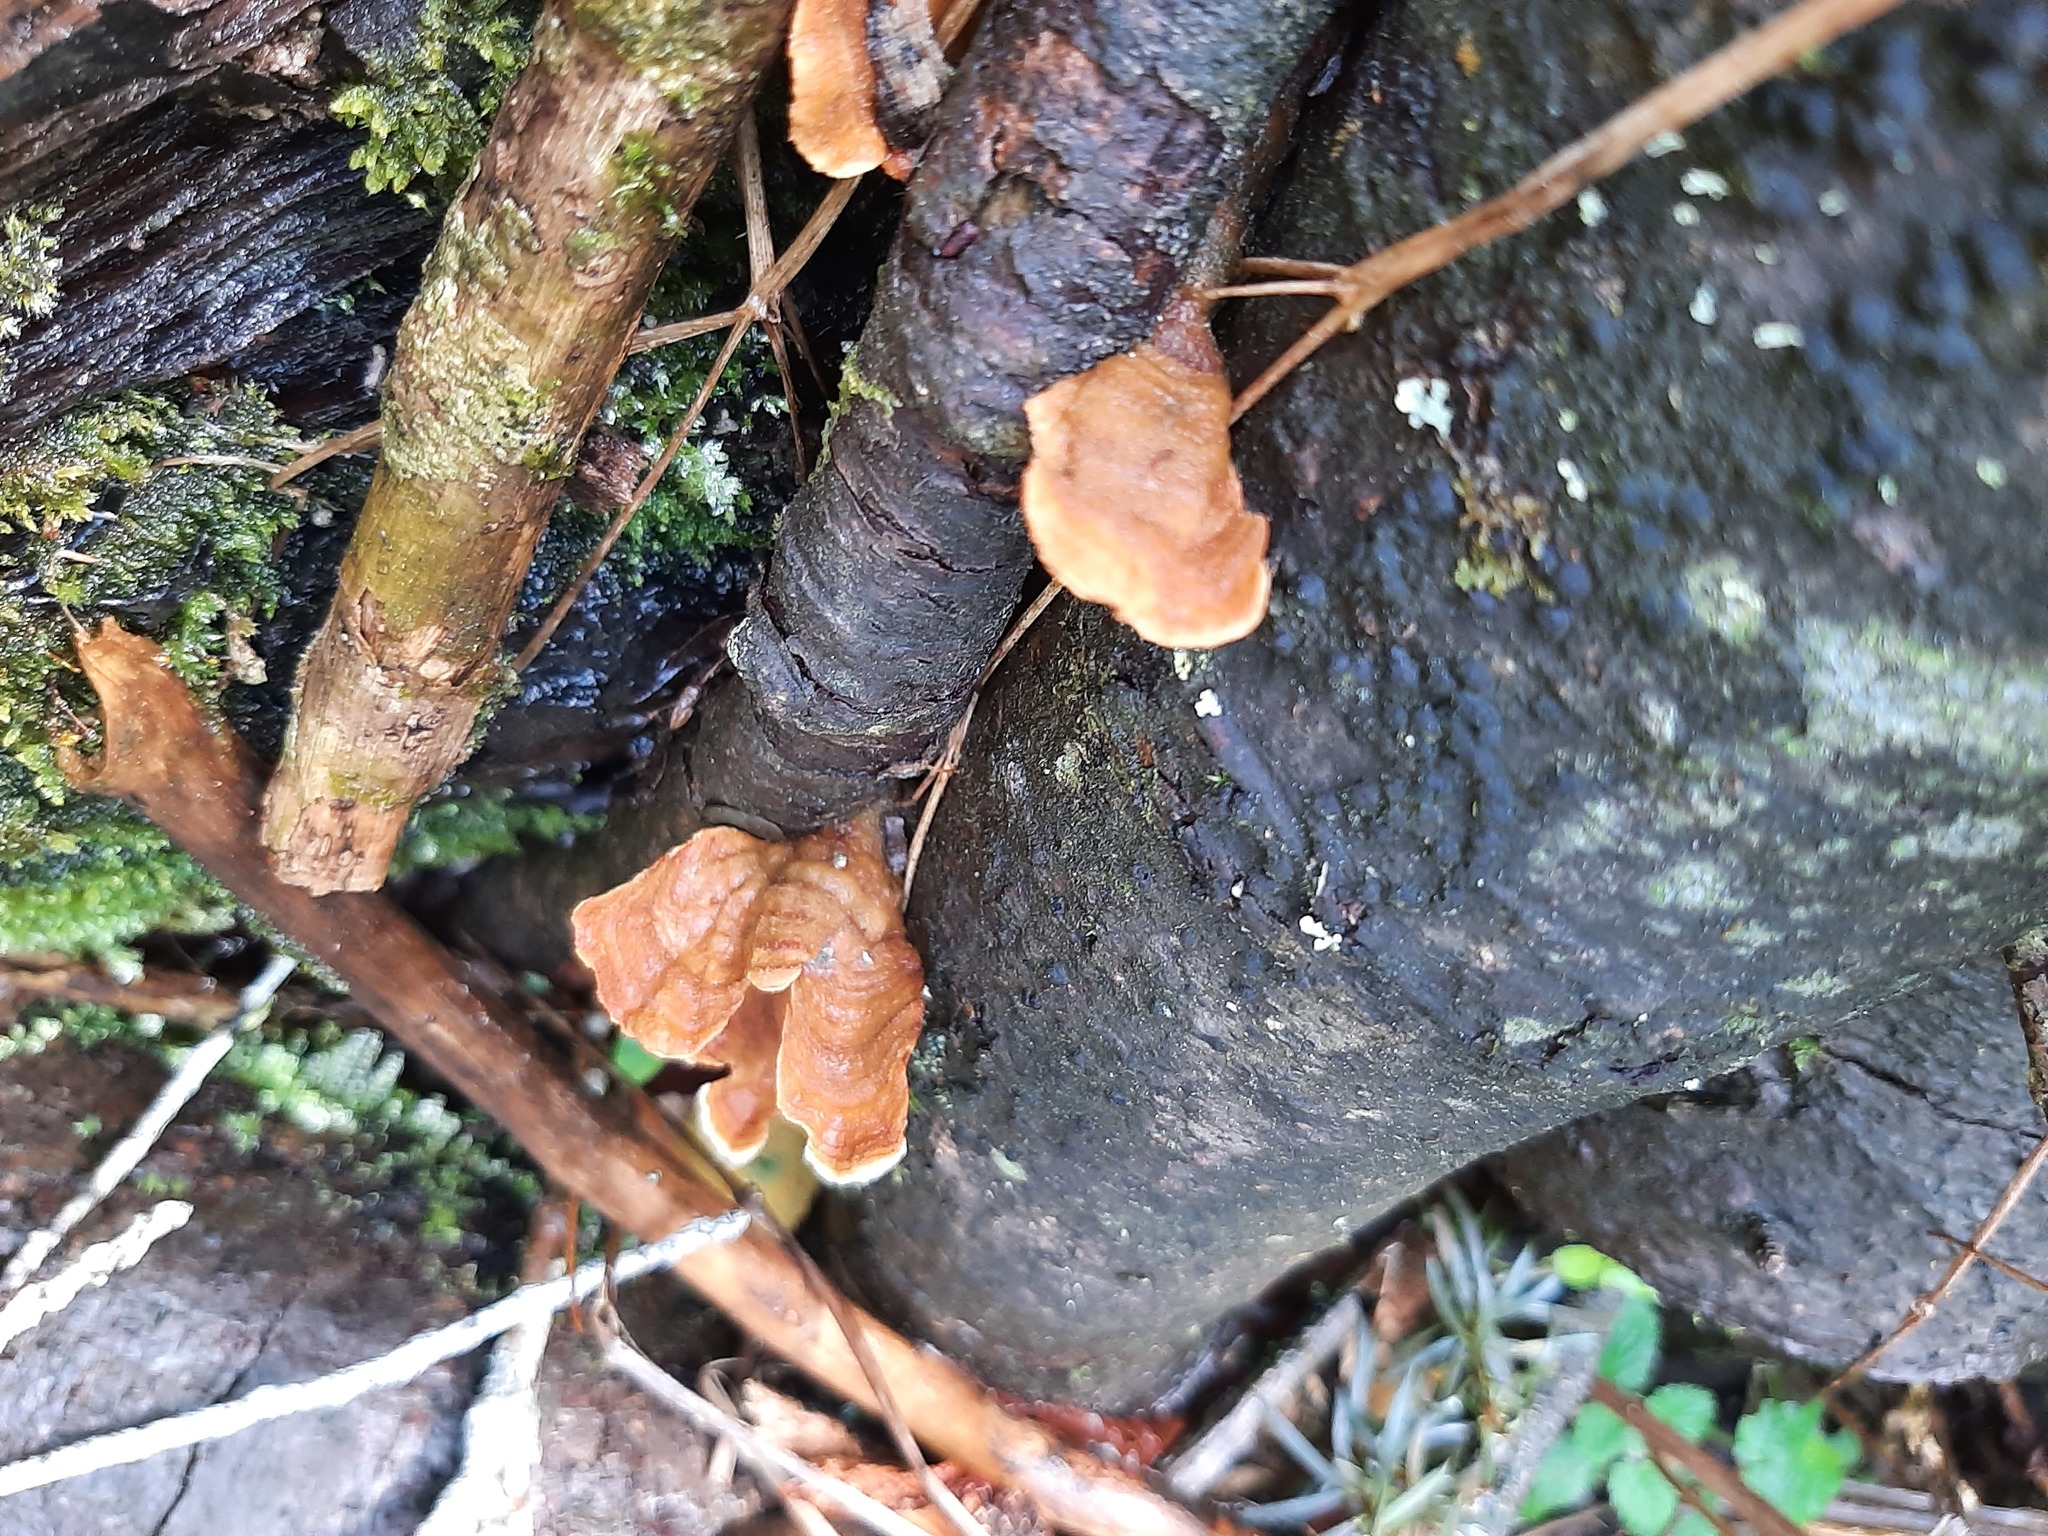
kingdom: Fungi
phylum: Basidiomycota
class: Agaricomycetes
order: Russulales
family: Stereaceae
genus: Stereum
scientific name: Stereum versicolor
